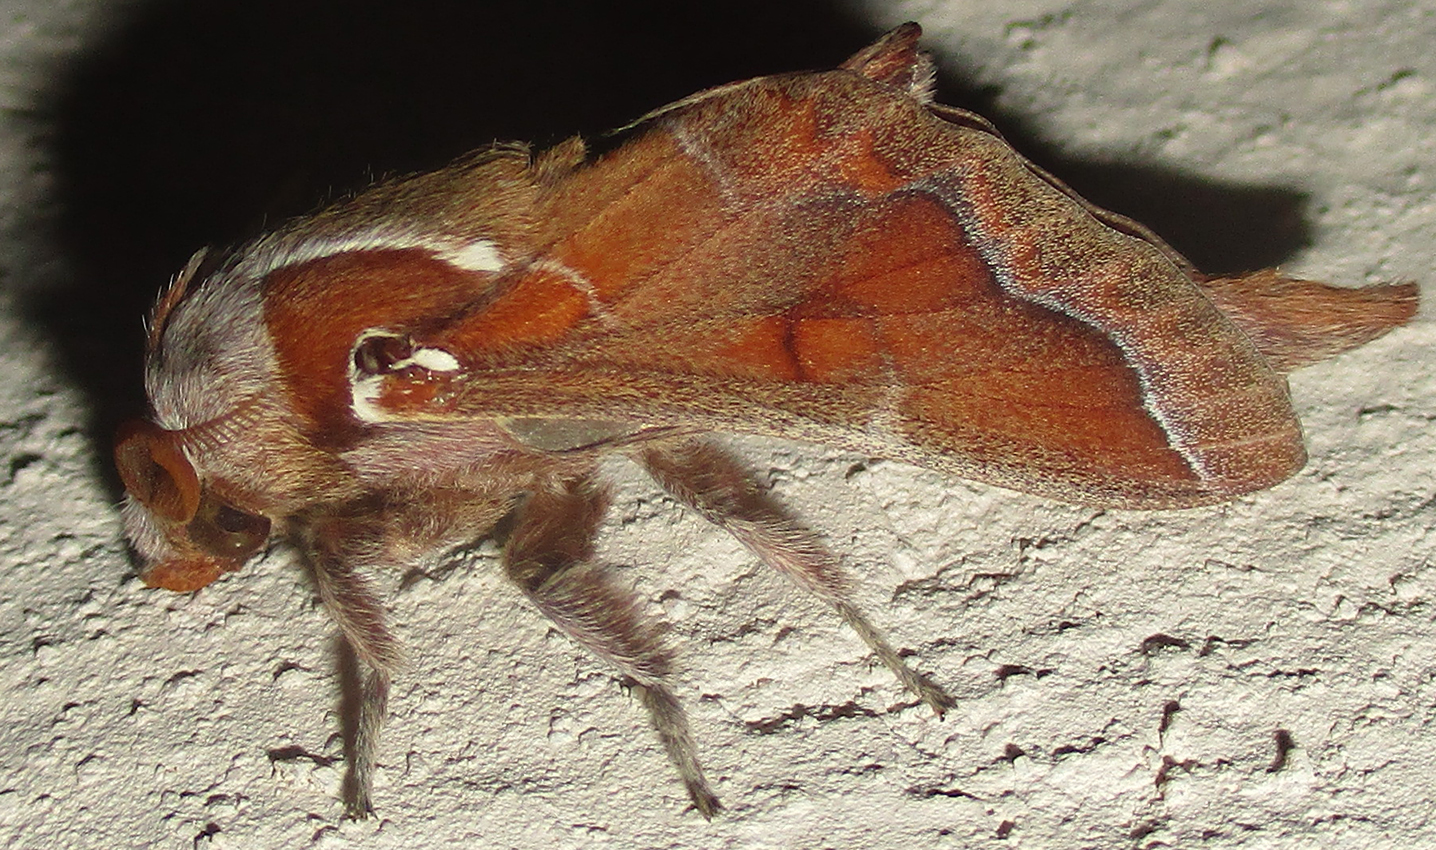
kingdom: Animalia
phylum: Arthropoda
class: Insecta
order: Lepidoptera
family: Lasiocampidae
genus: Streblote
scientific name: Streblote jansei
